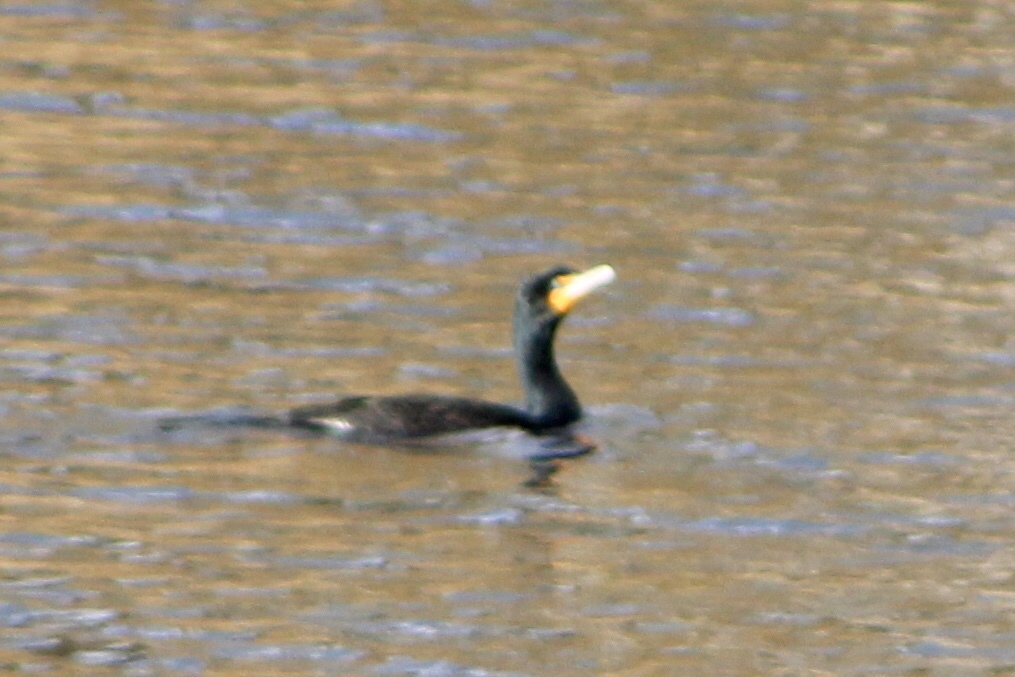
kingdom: Animalia
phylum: Chordata
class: Aves
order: Suliformes
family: Phalacrocoracidae
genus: Phalacrocorax
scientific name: Phalacrocorax auritus
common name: Double-crested cormorant
